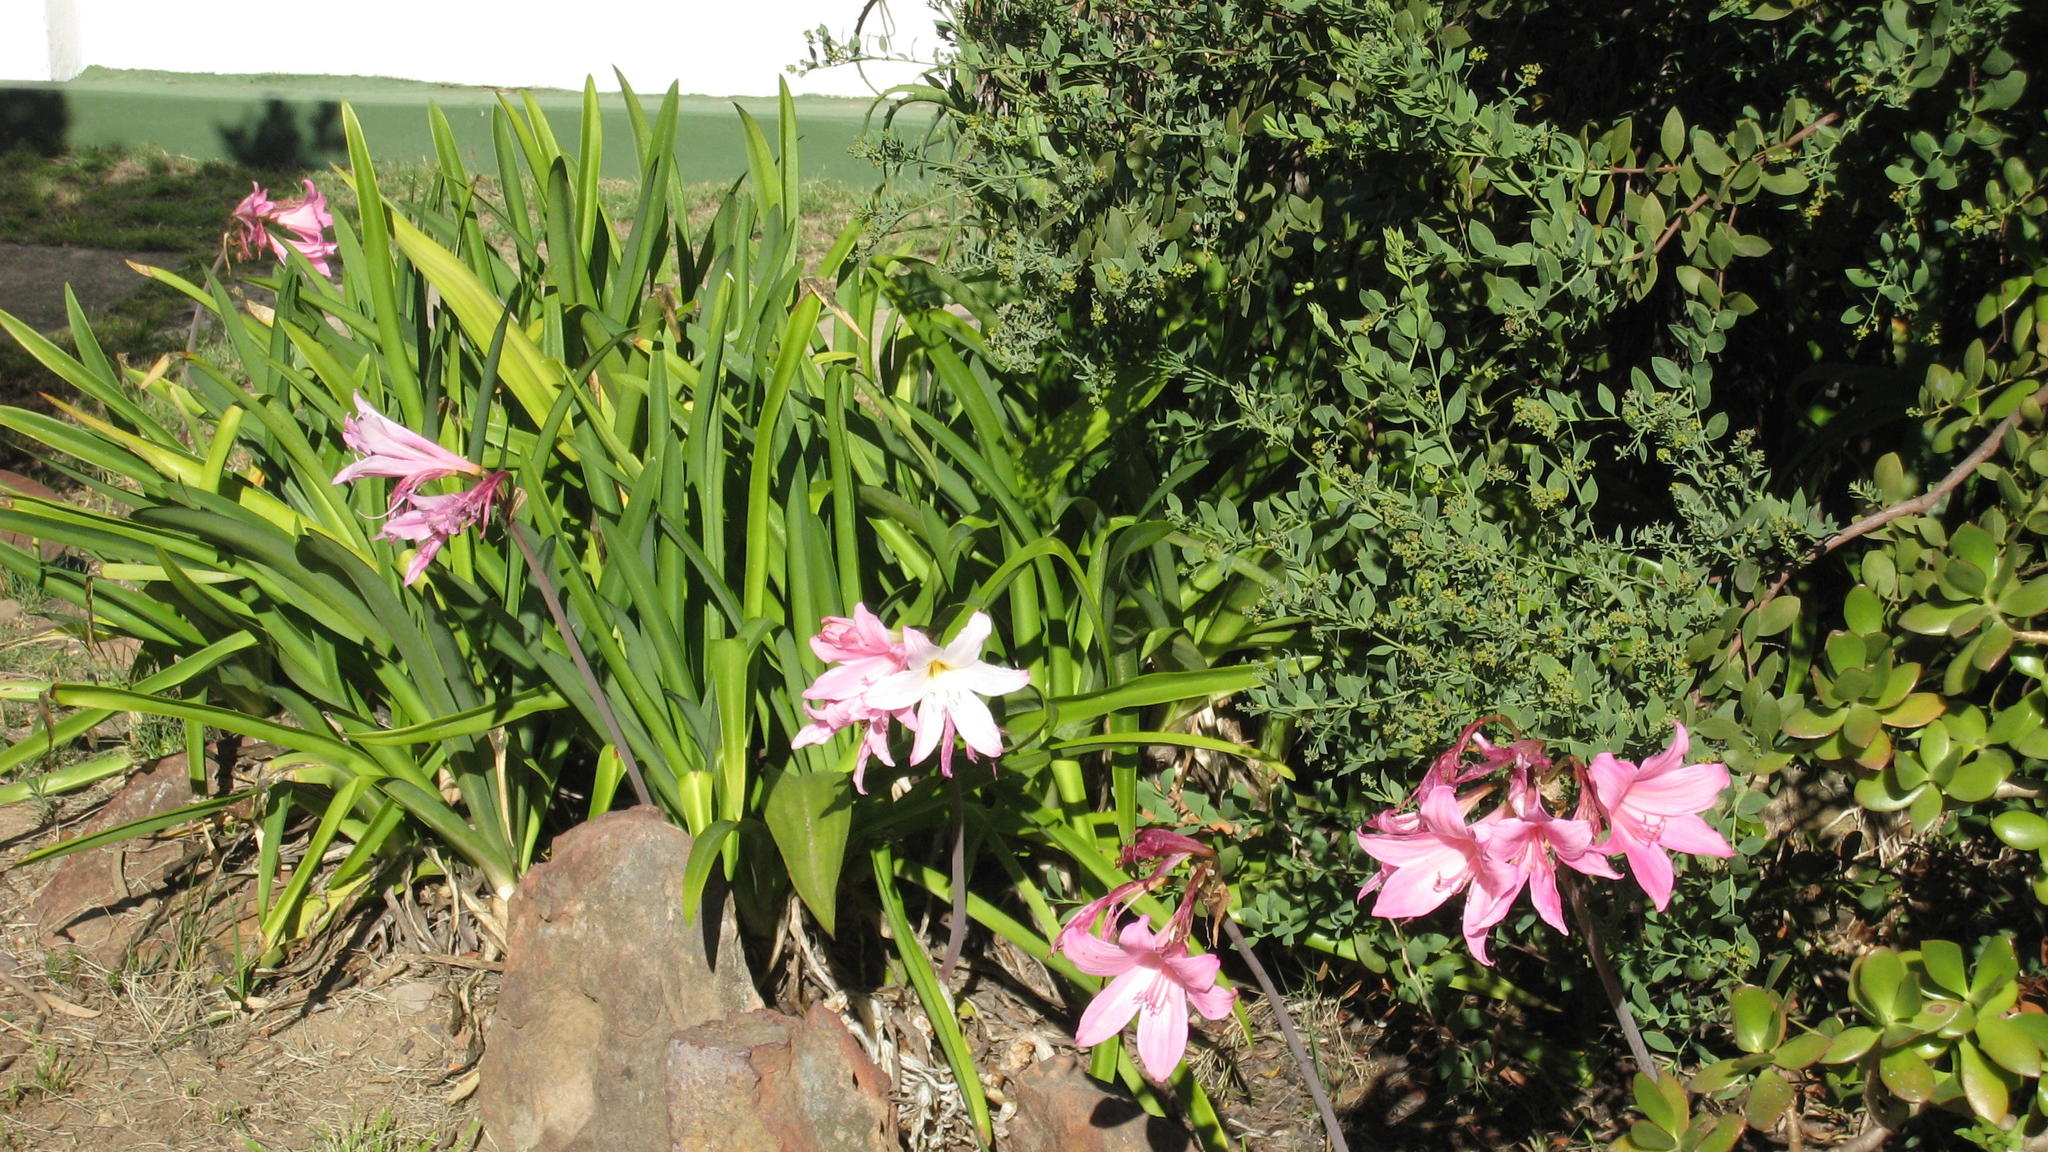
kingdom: Plantae
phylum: Tracheophyta
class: Liliopsida
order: Asparagales
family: Amaryllidaceae
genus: Amaryllis
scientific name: Amaryllis belladonna
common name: Jersey lily
